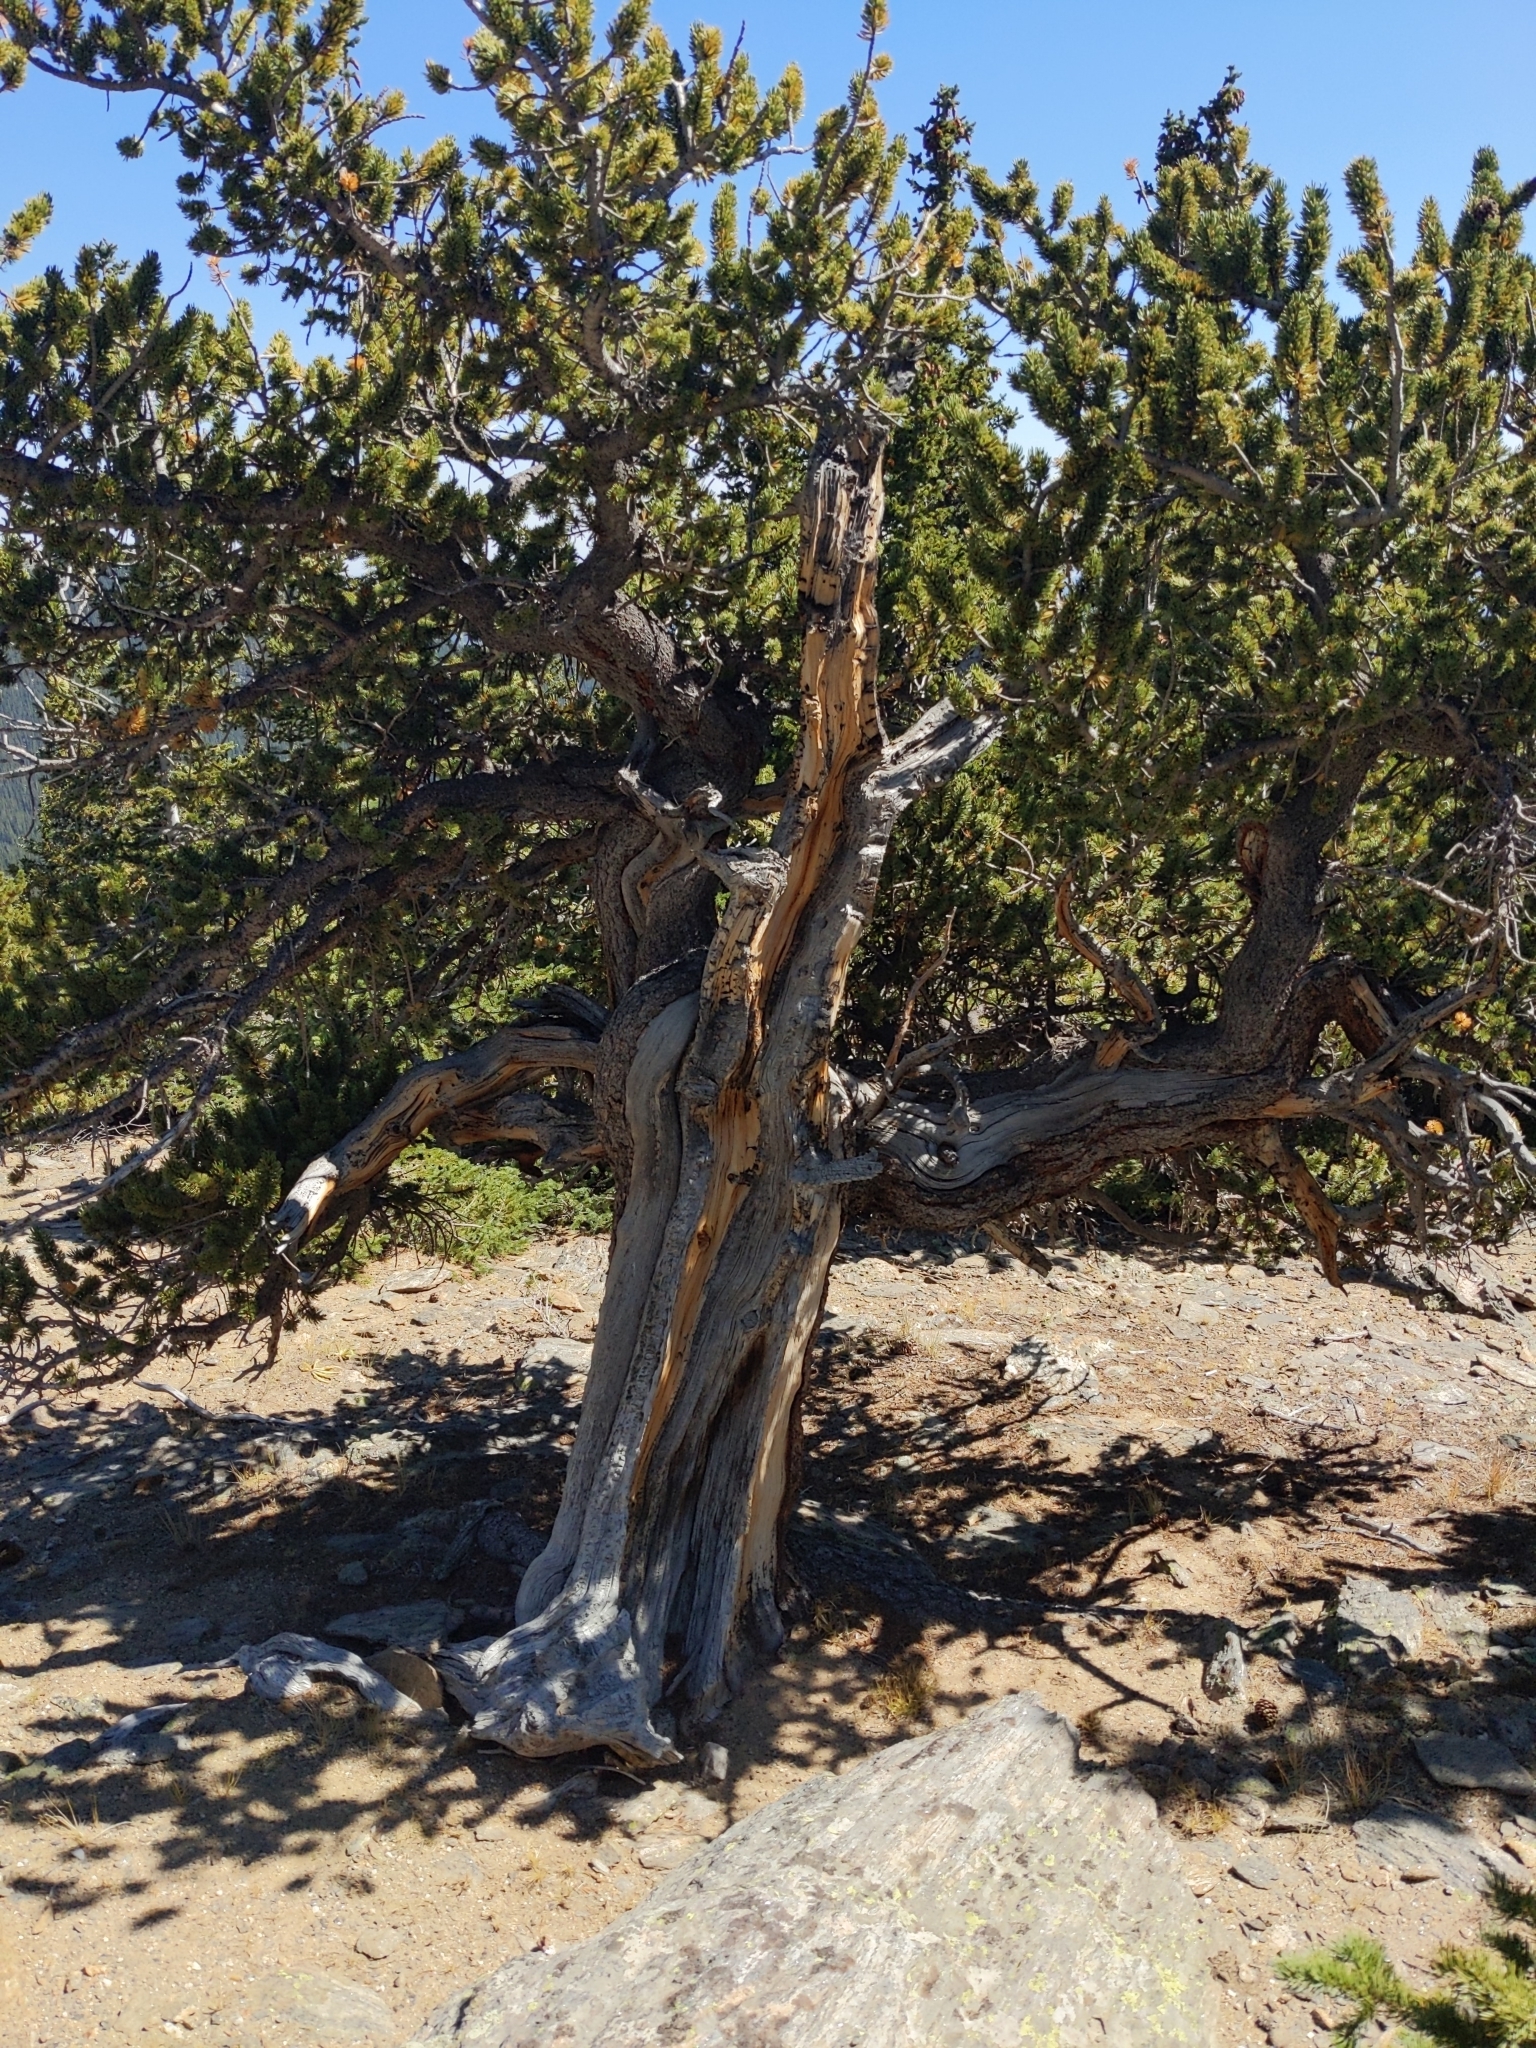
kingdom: Plantae
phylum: Tracheophyta
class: Pinopsida
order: Pinales
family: Pinaceae
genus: Pinus
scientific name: Pinus aristata
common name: Colorado bristlecone pine
